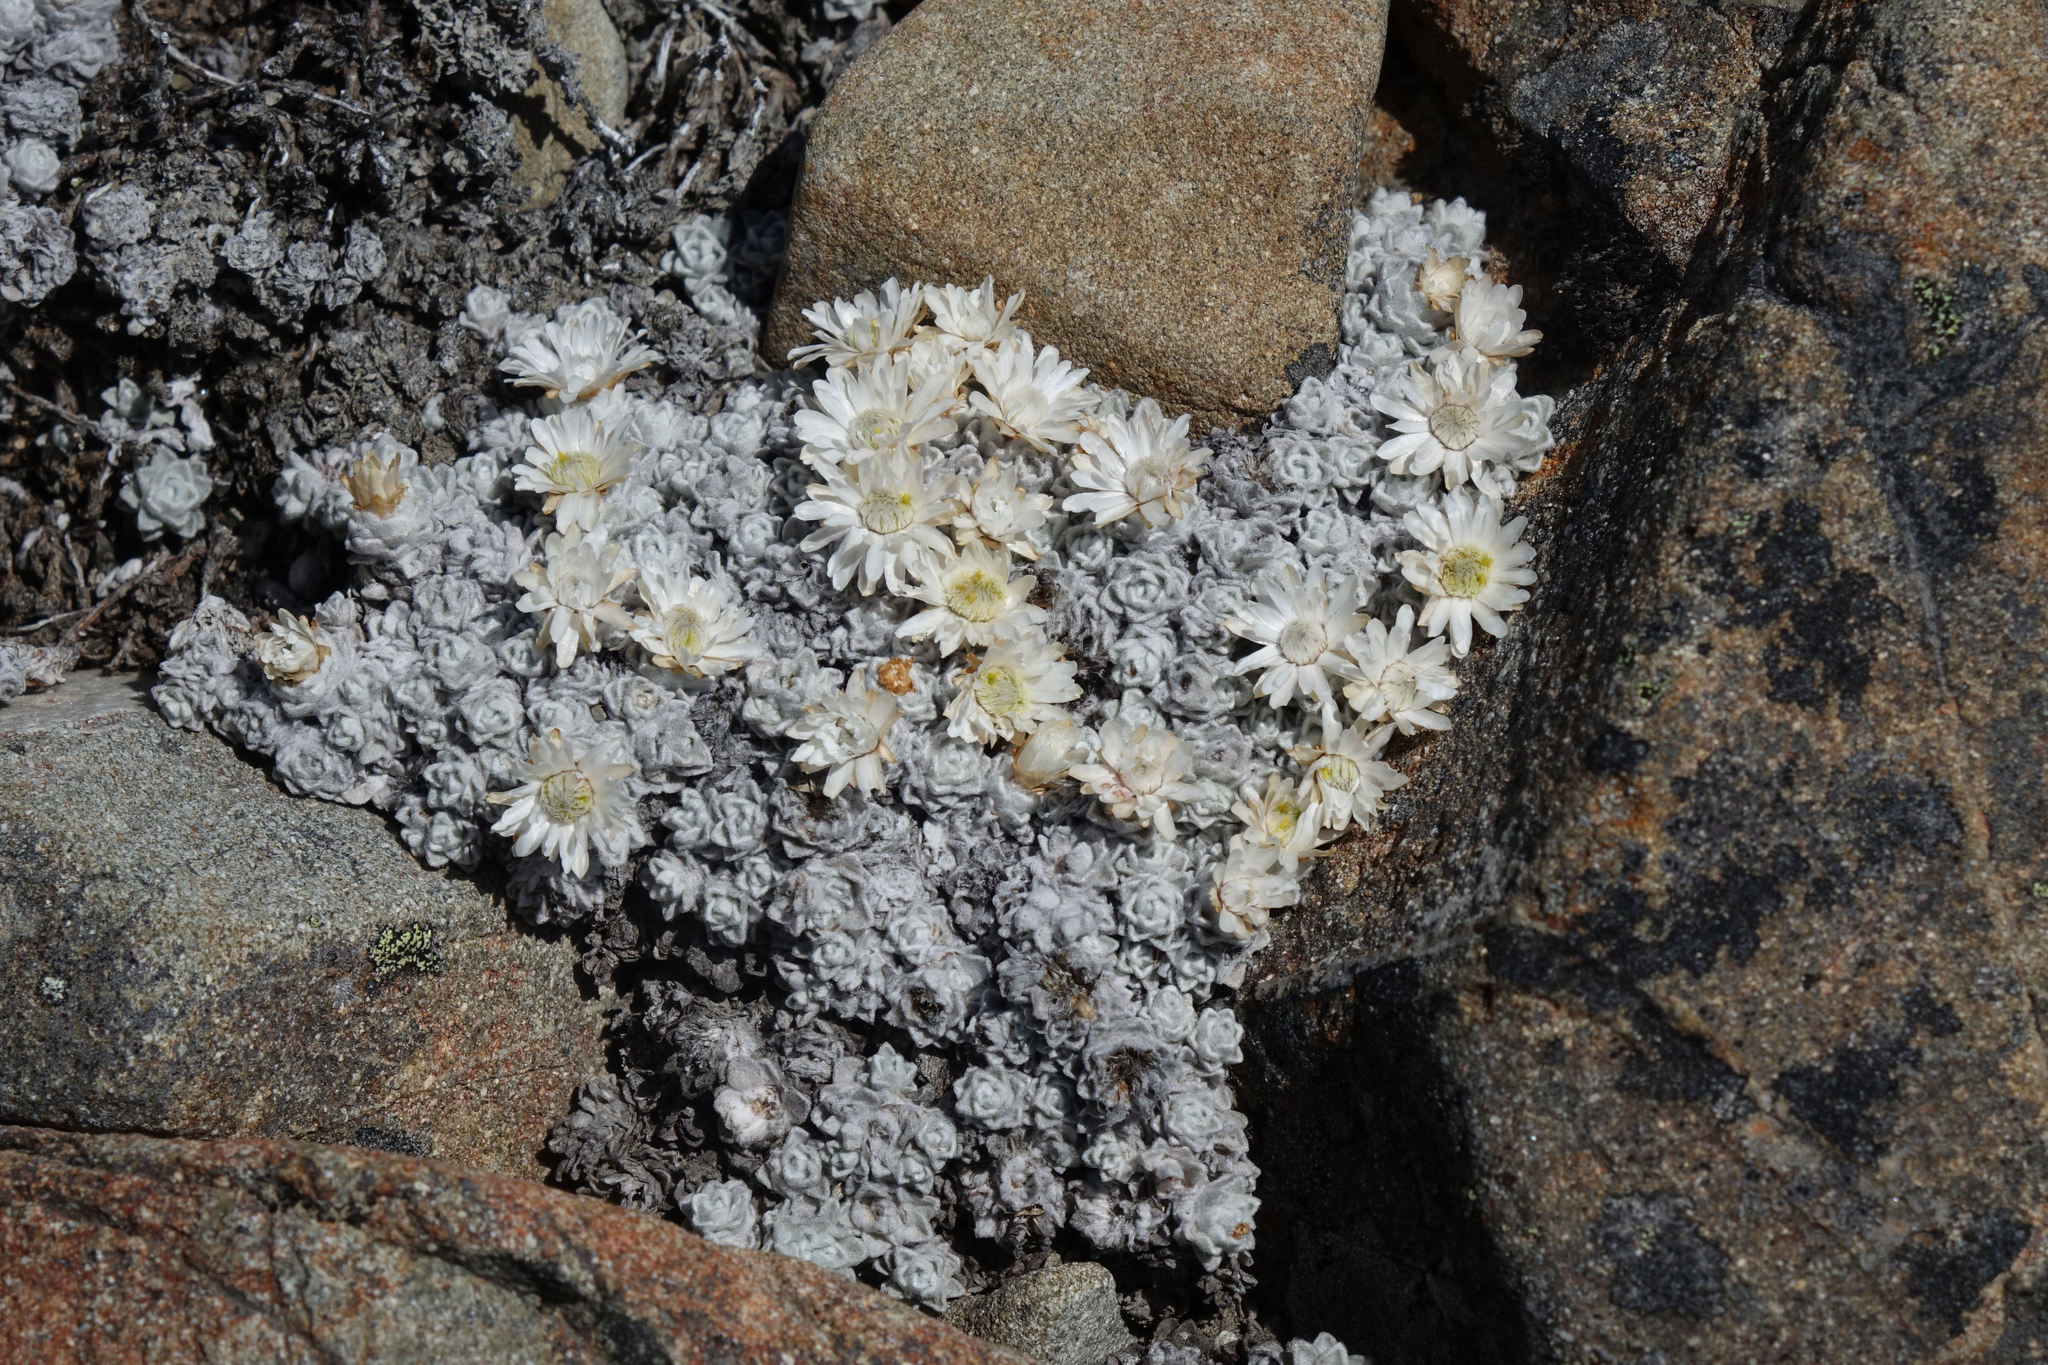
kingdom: Plantae
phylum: Tracheophyta
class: Magnoliopsida
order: Asterales
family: Asteraceae
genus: Raoulia
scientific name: Raoulia youngii
